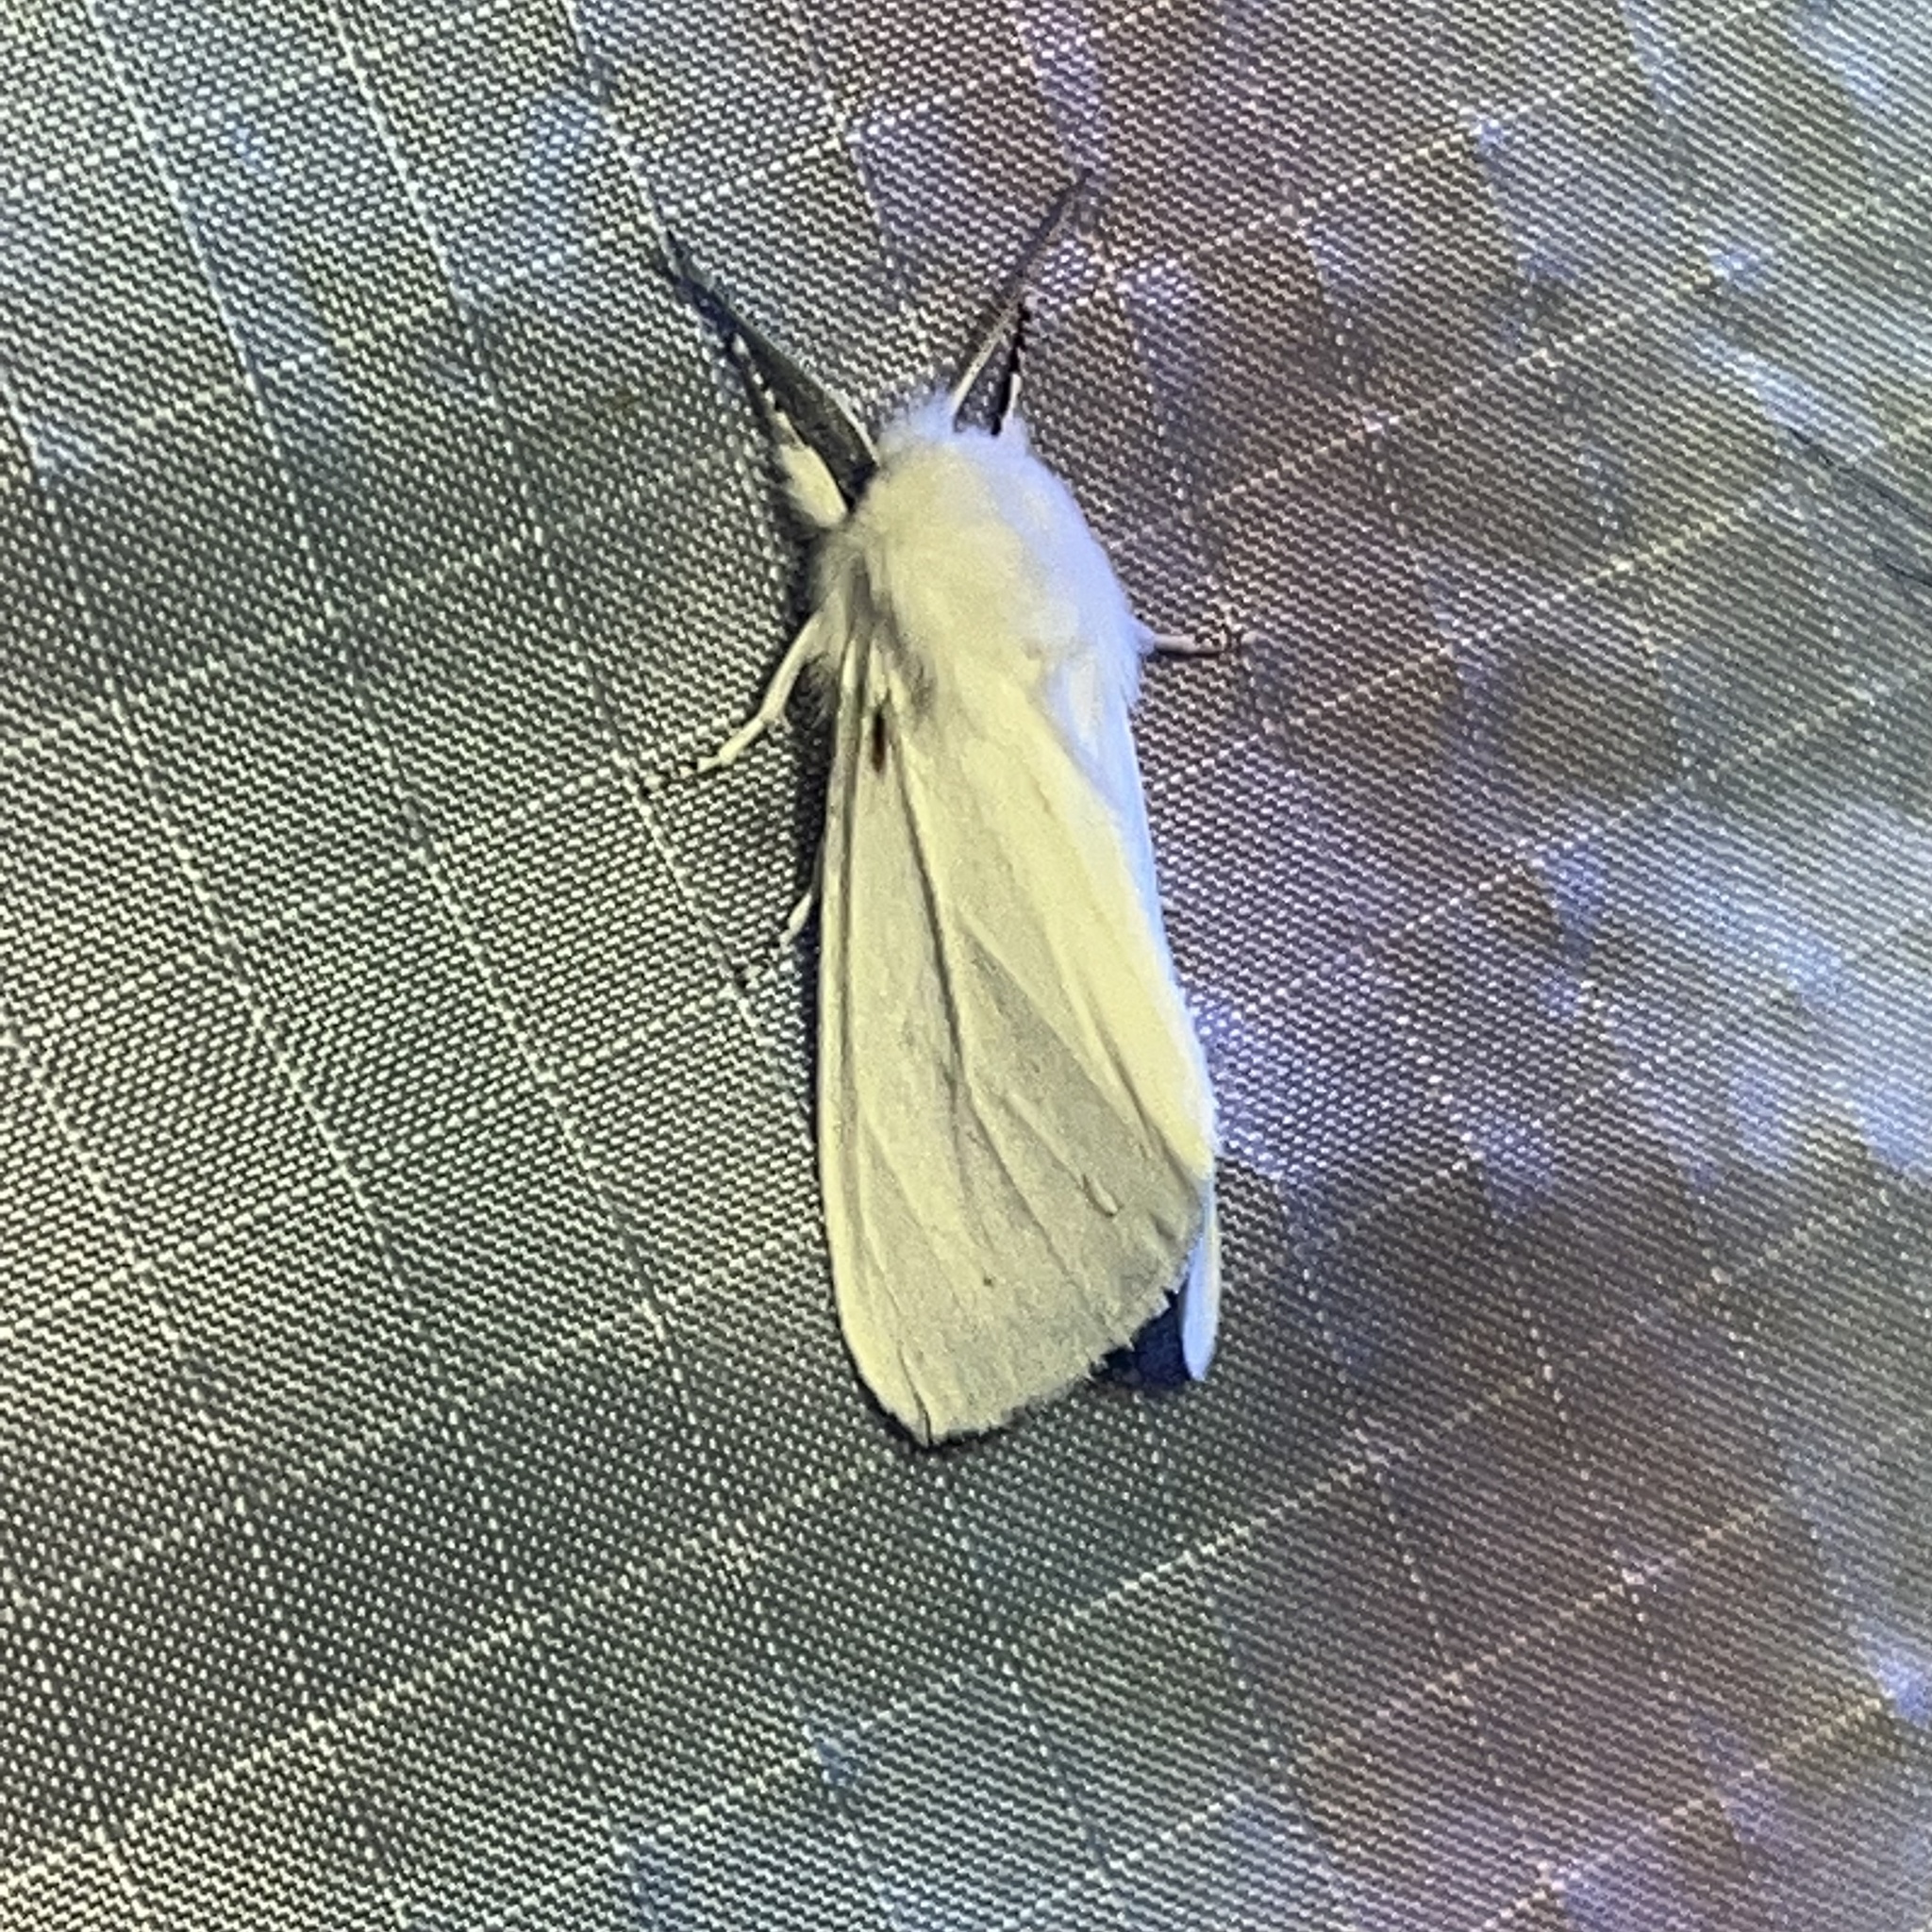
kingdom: Animalia
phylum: Arthropoda
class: Insecta
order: Lepidoptera
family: Erebidae
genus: Spilosoma
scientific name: Spilosoma virginica
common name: Virginia tiger moth
